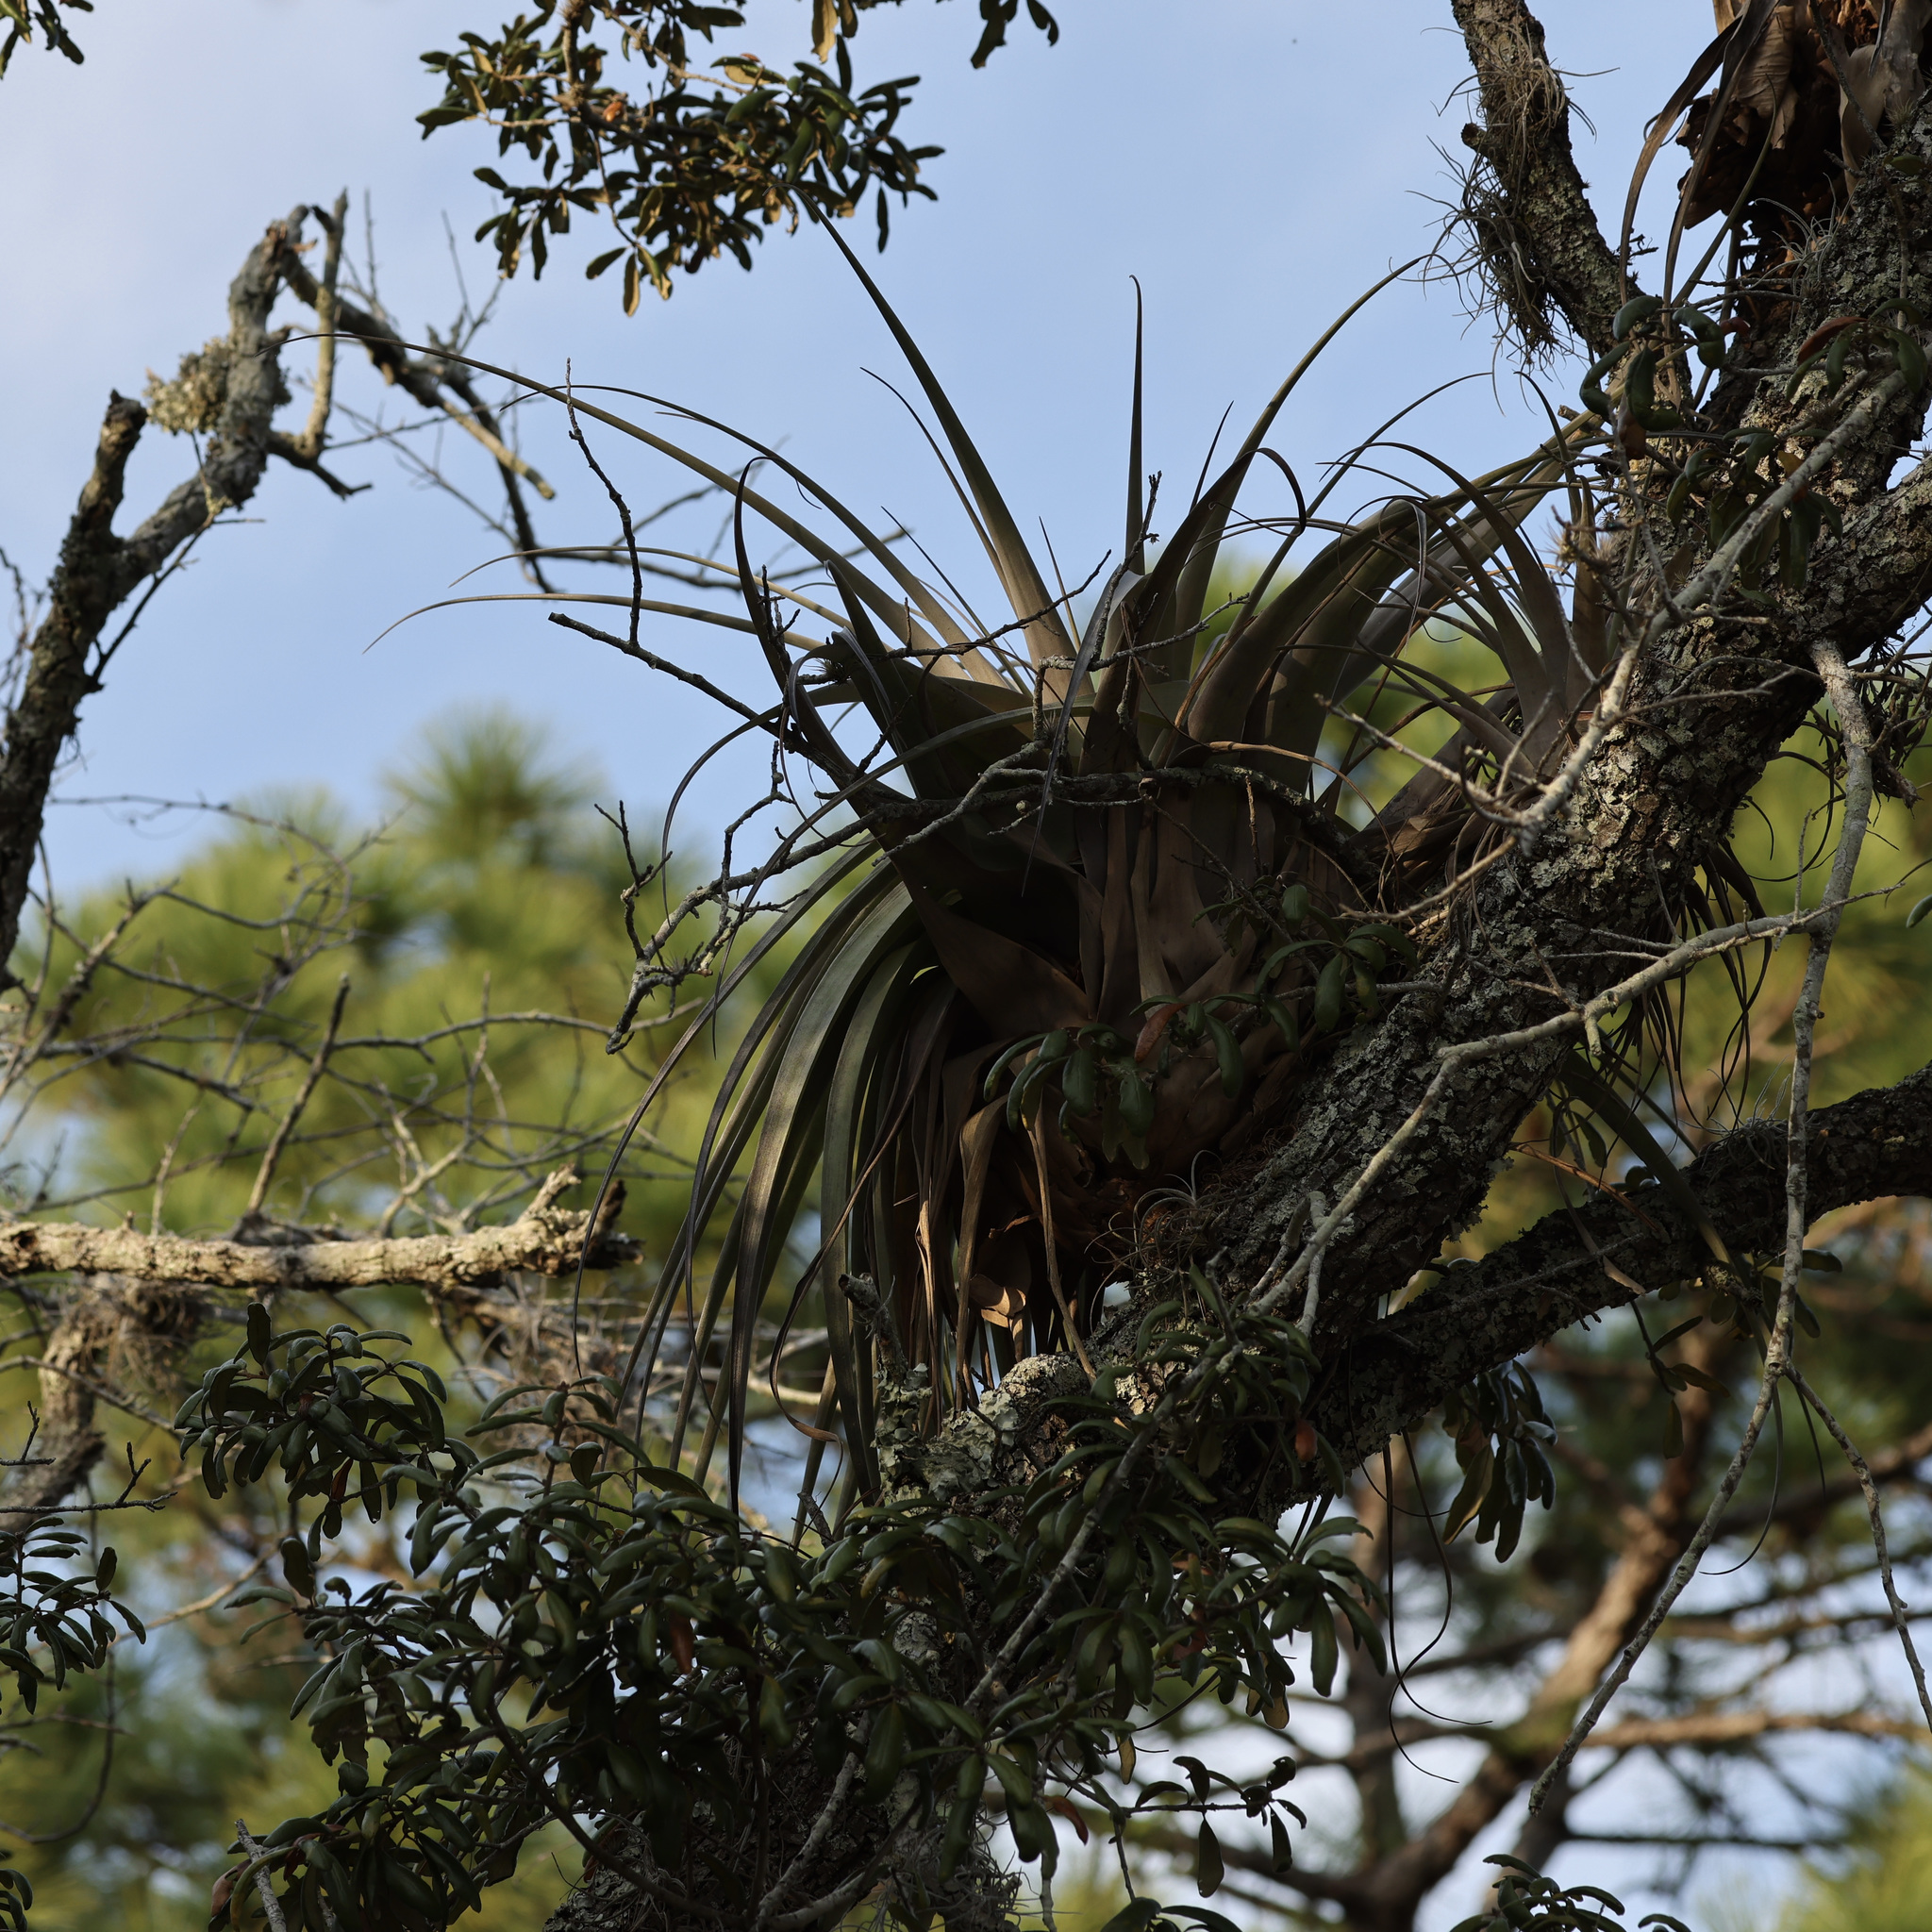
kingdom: Plantae
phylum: Tracheophyta
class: Liliopsida
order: Poales
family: Bromeliaceae
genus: Tillandsia
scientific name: Tillandsia utriculata
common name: Wild pine
